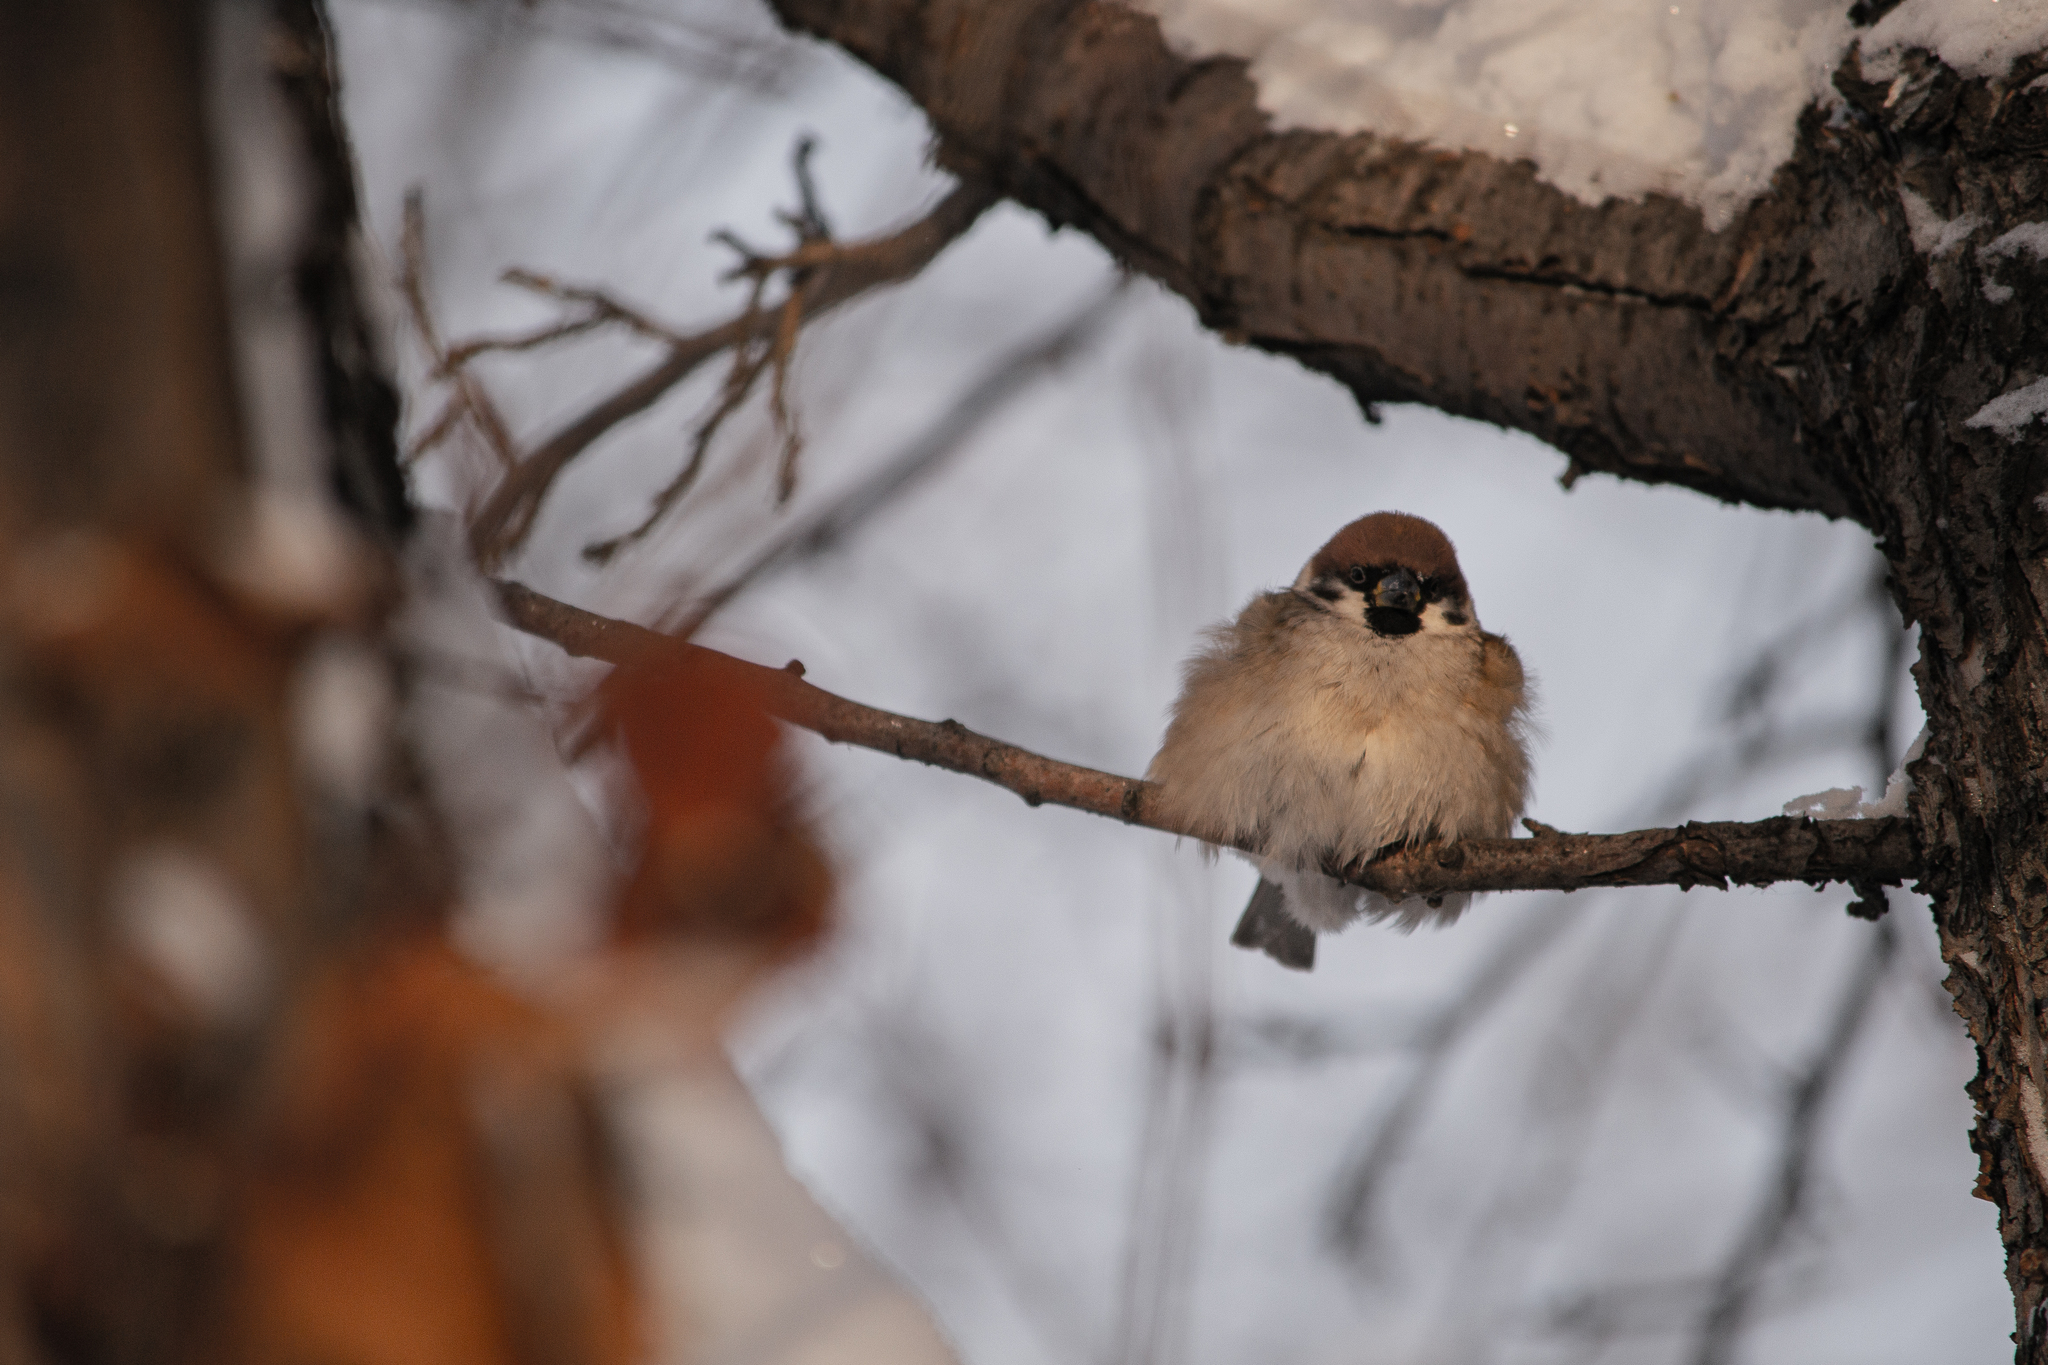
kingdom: Animalia
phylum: Chordata
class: Aves
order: Passeriformes
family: Passeridae
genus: Passer
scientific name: Passer montanus
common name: Eurasian tree sparrow
